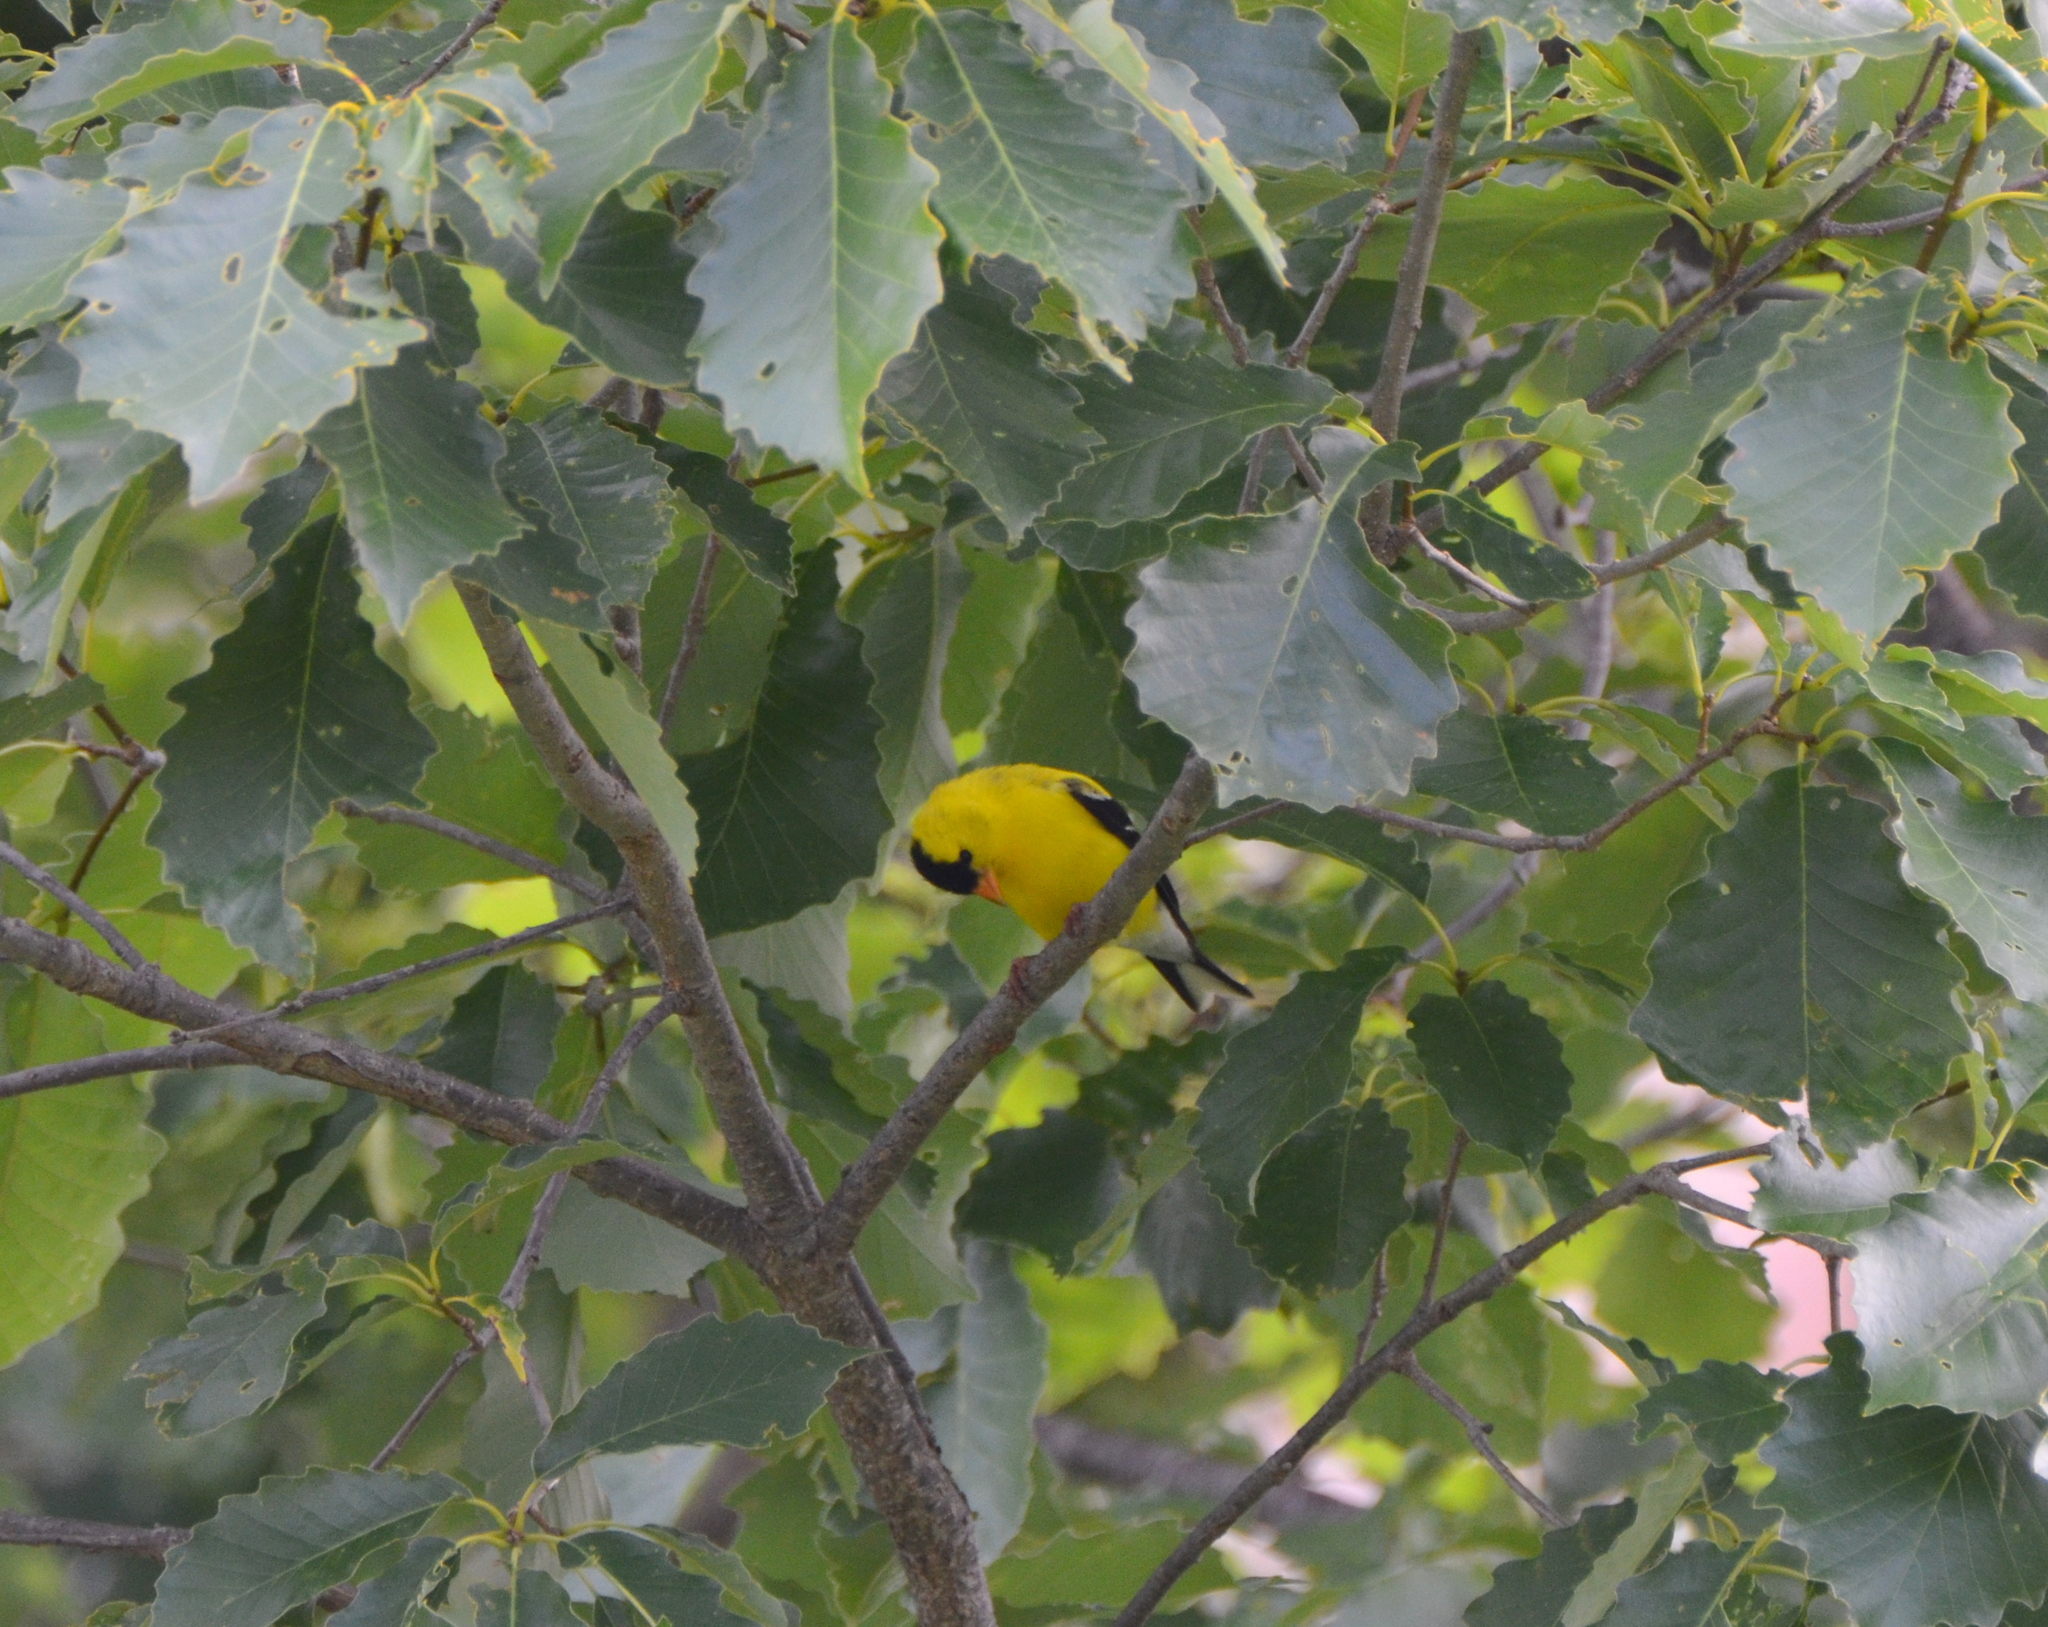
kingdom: Animalia
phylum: Chordata
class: Aves
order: Passeriformes
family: Fringillidae
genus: Spinus
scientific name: Spinus tristis
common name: American goldfinch
